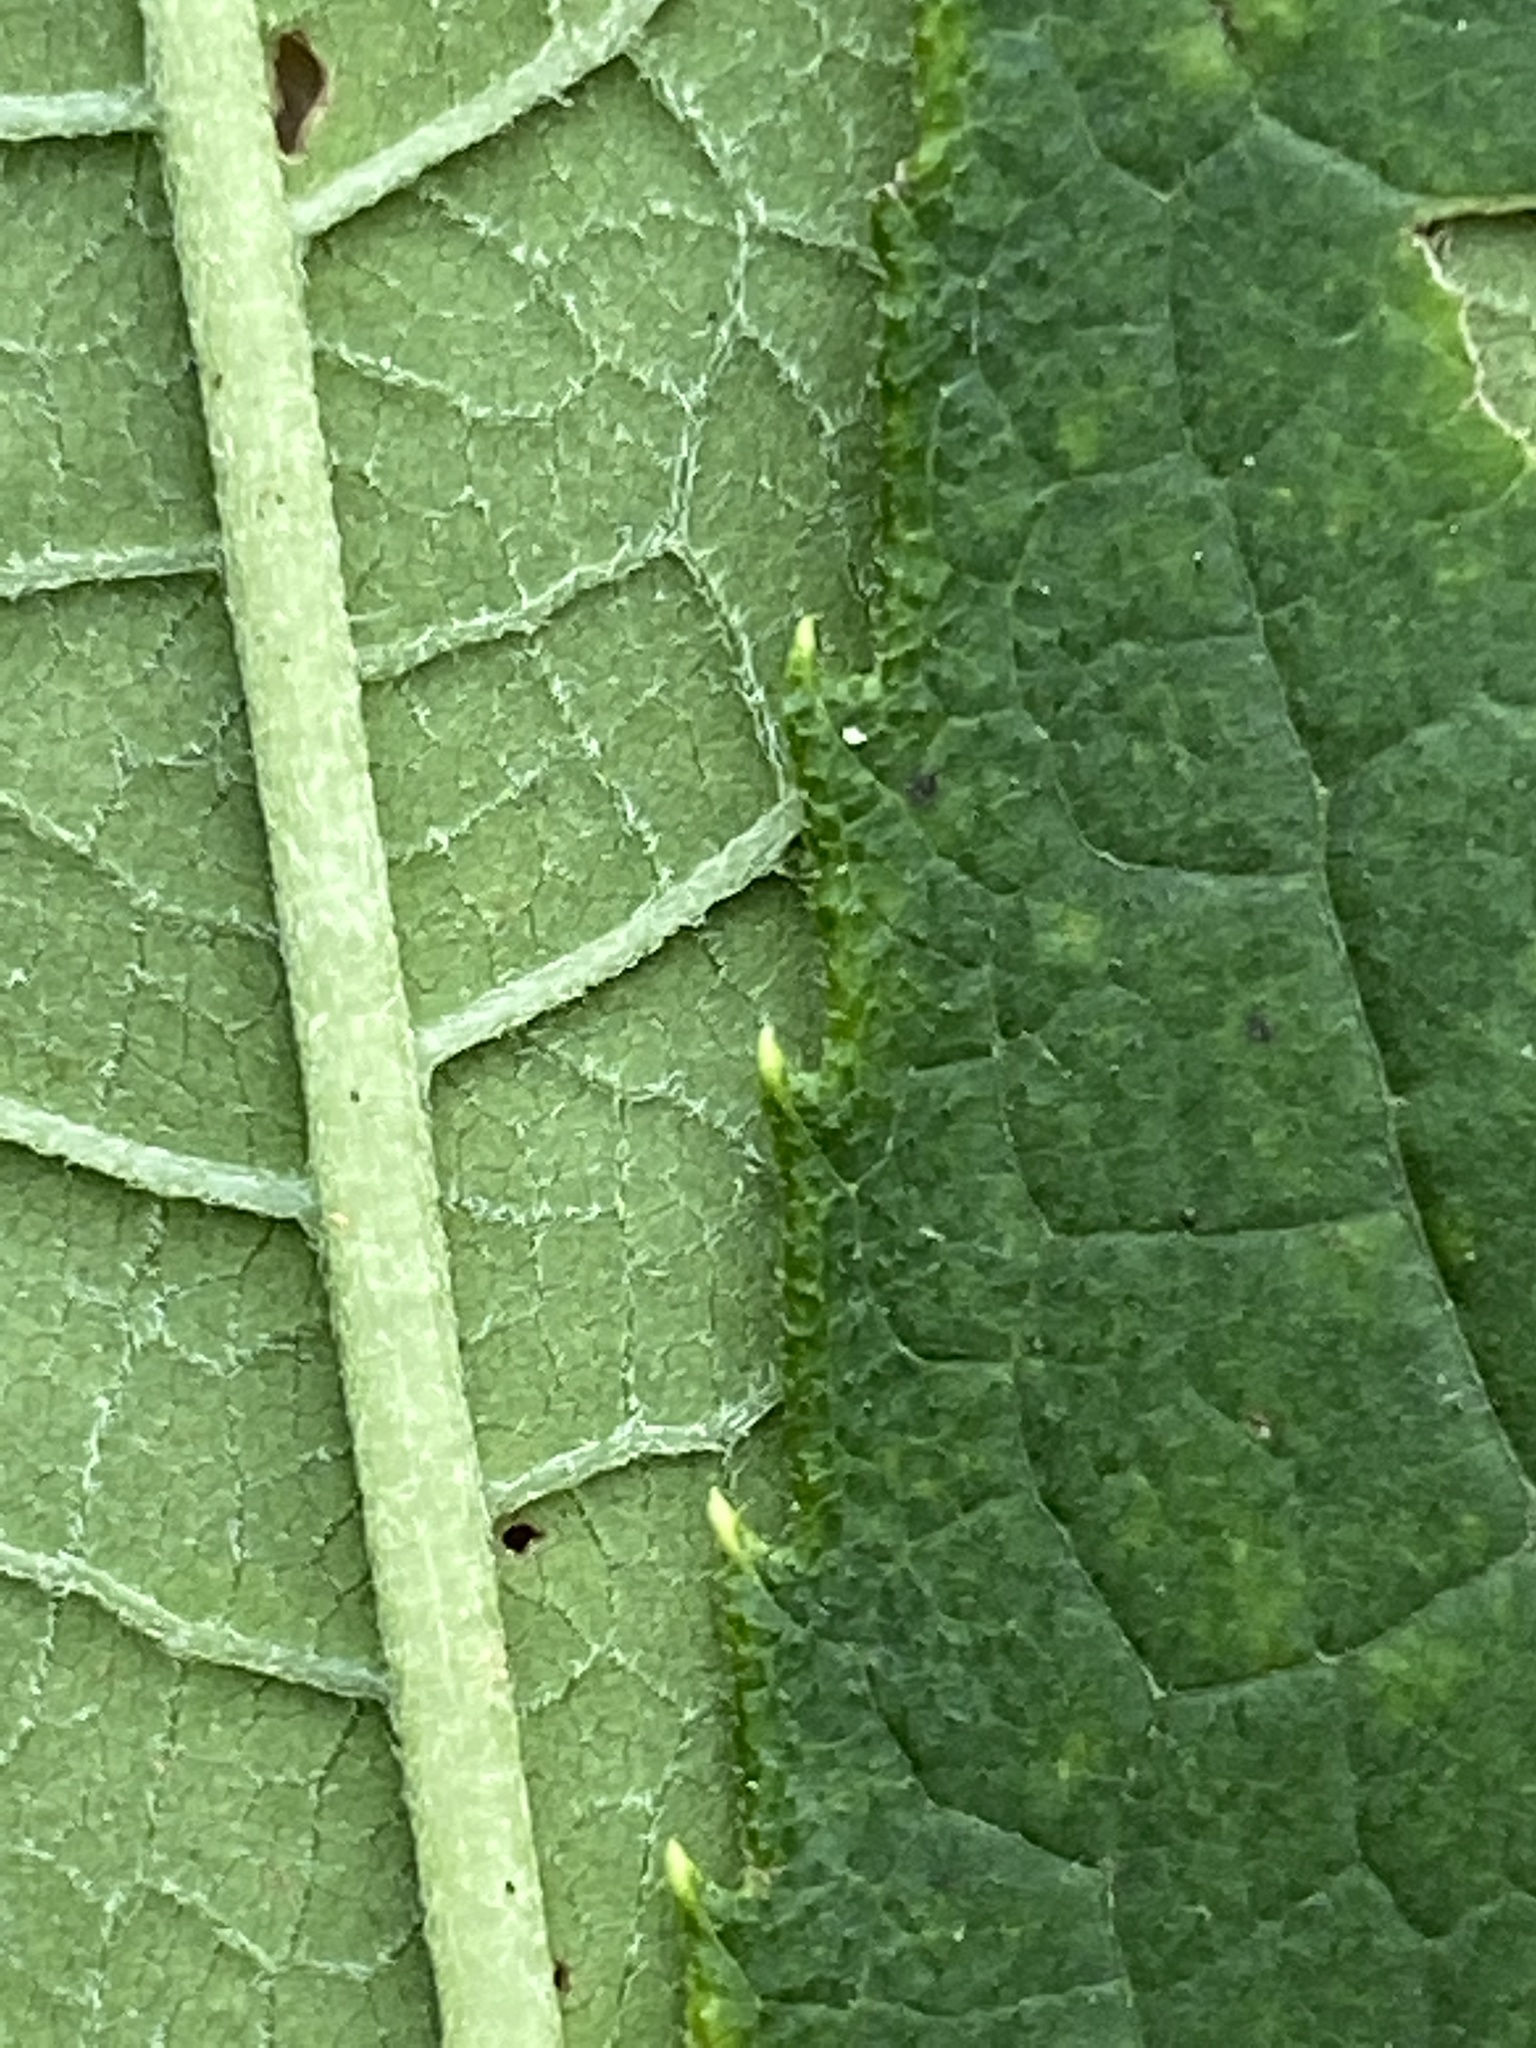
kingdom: Plantae
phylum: Tracheophyta
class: Magnoliopsida
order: Asterales
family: Asteraceae
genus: Vernonia
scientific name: Vernonia gigantea
